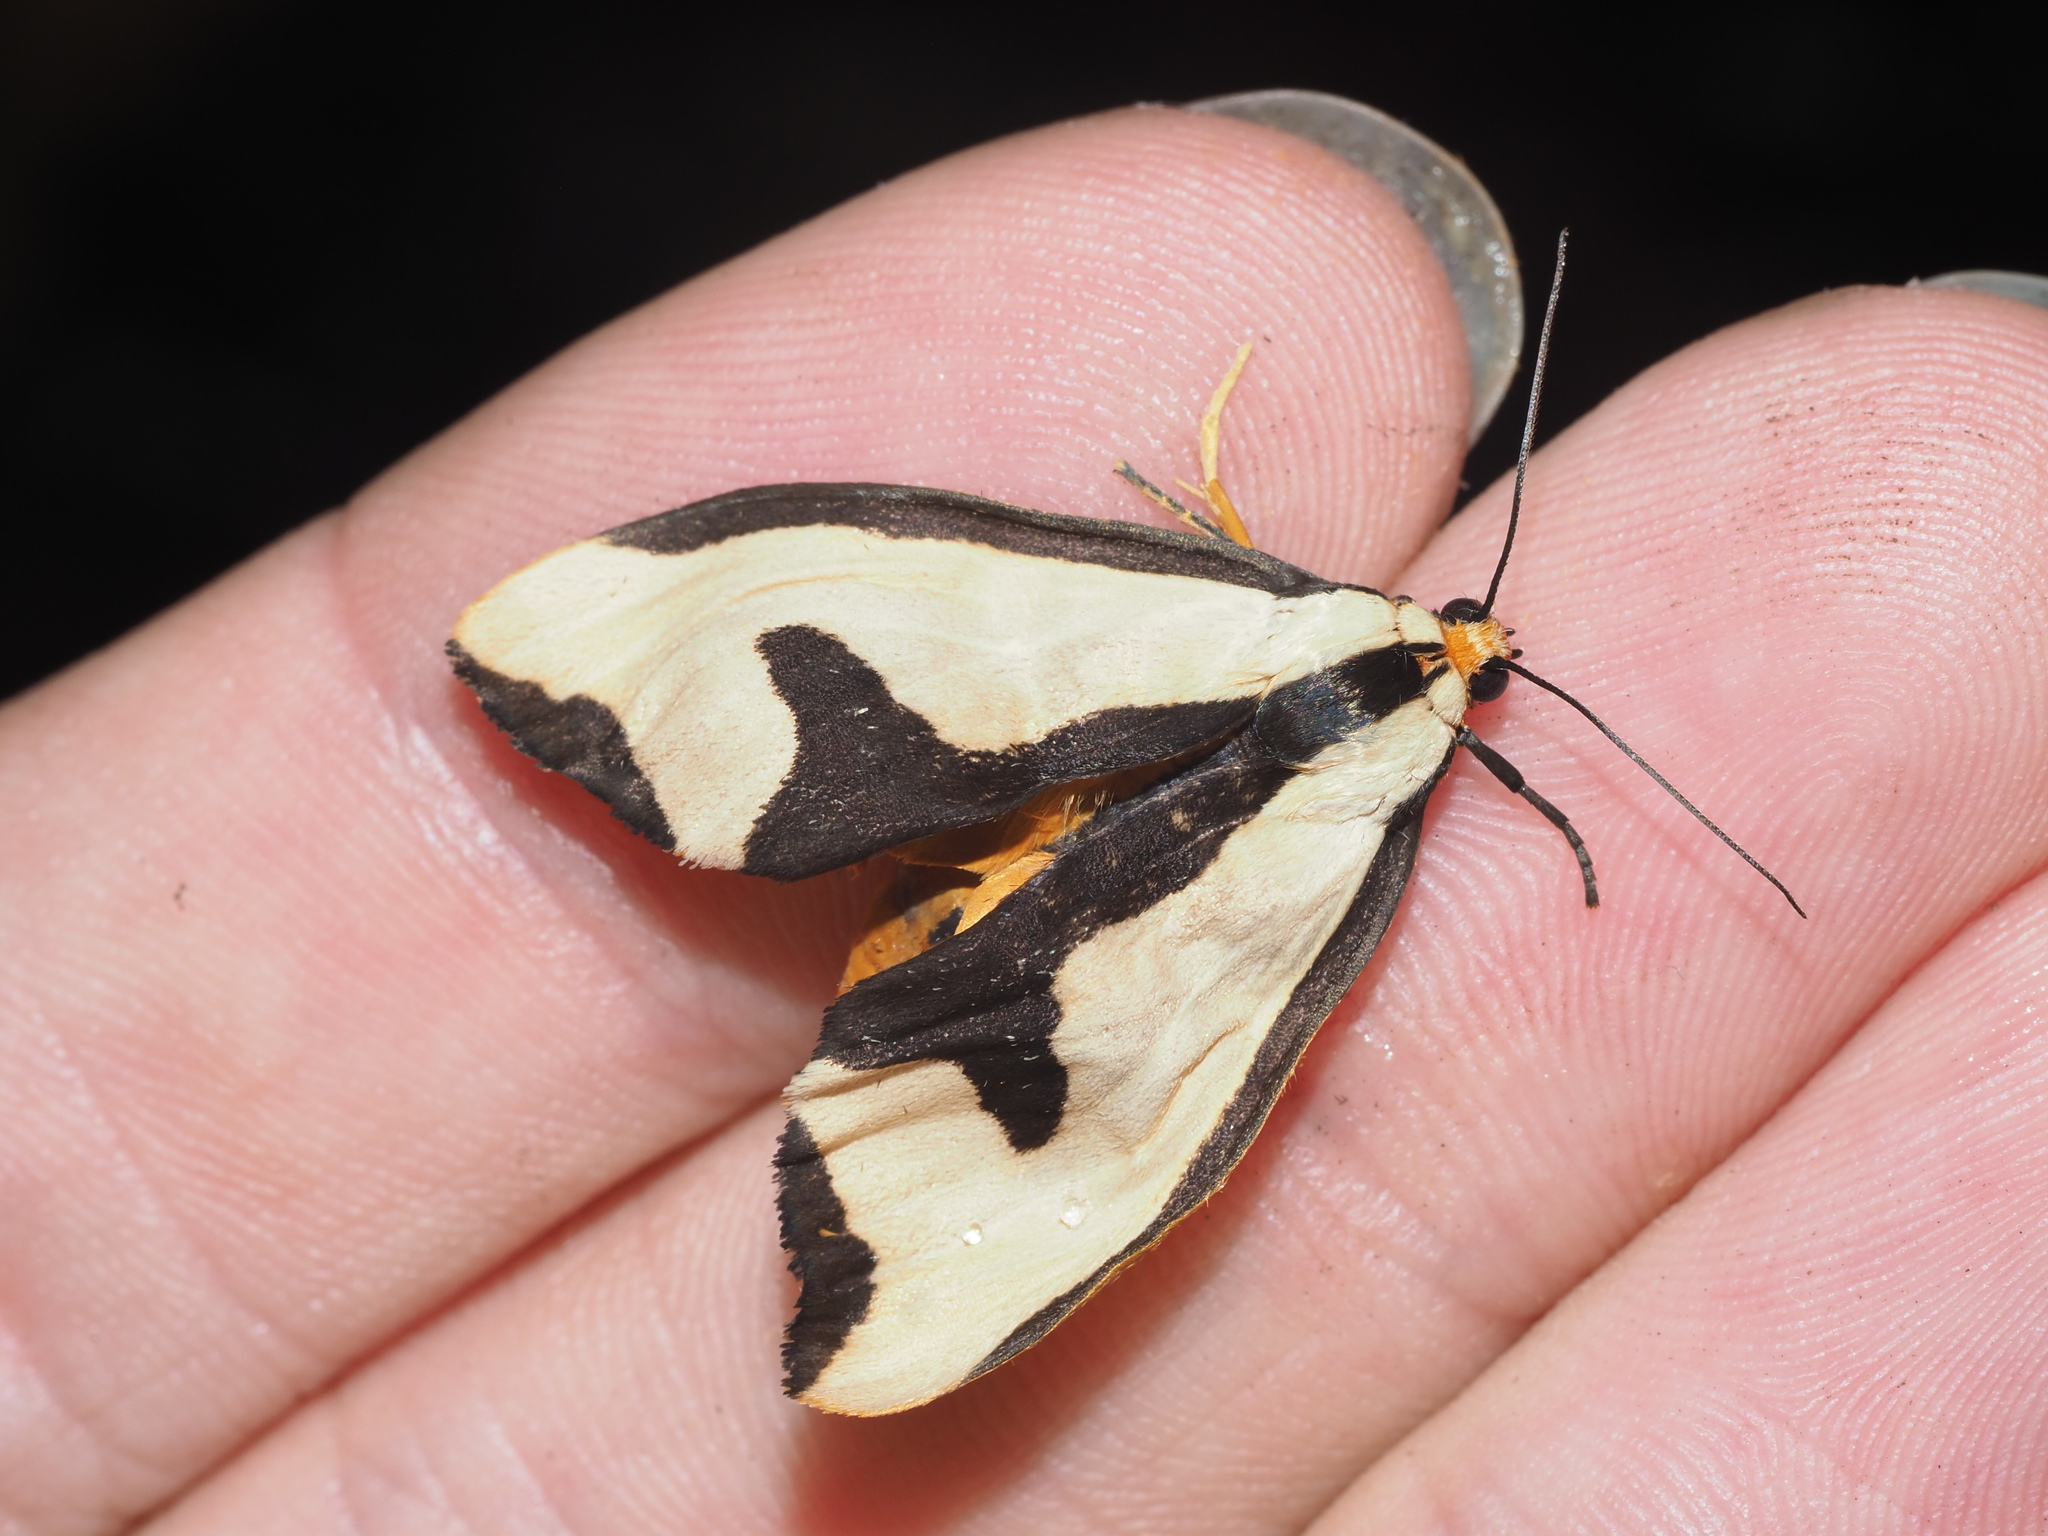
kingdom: Animalia
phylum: Arthropoda
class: Insecta
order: Lepidoptera
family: Erebidae
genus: Haploa
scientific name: Haploa clymene
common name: Clymene moth
